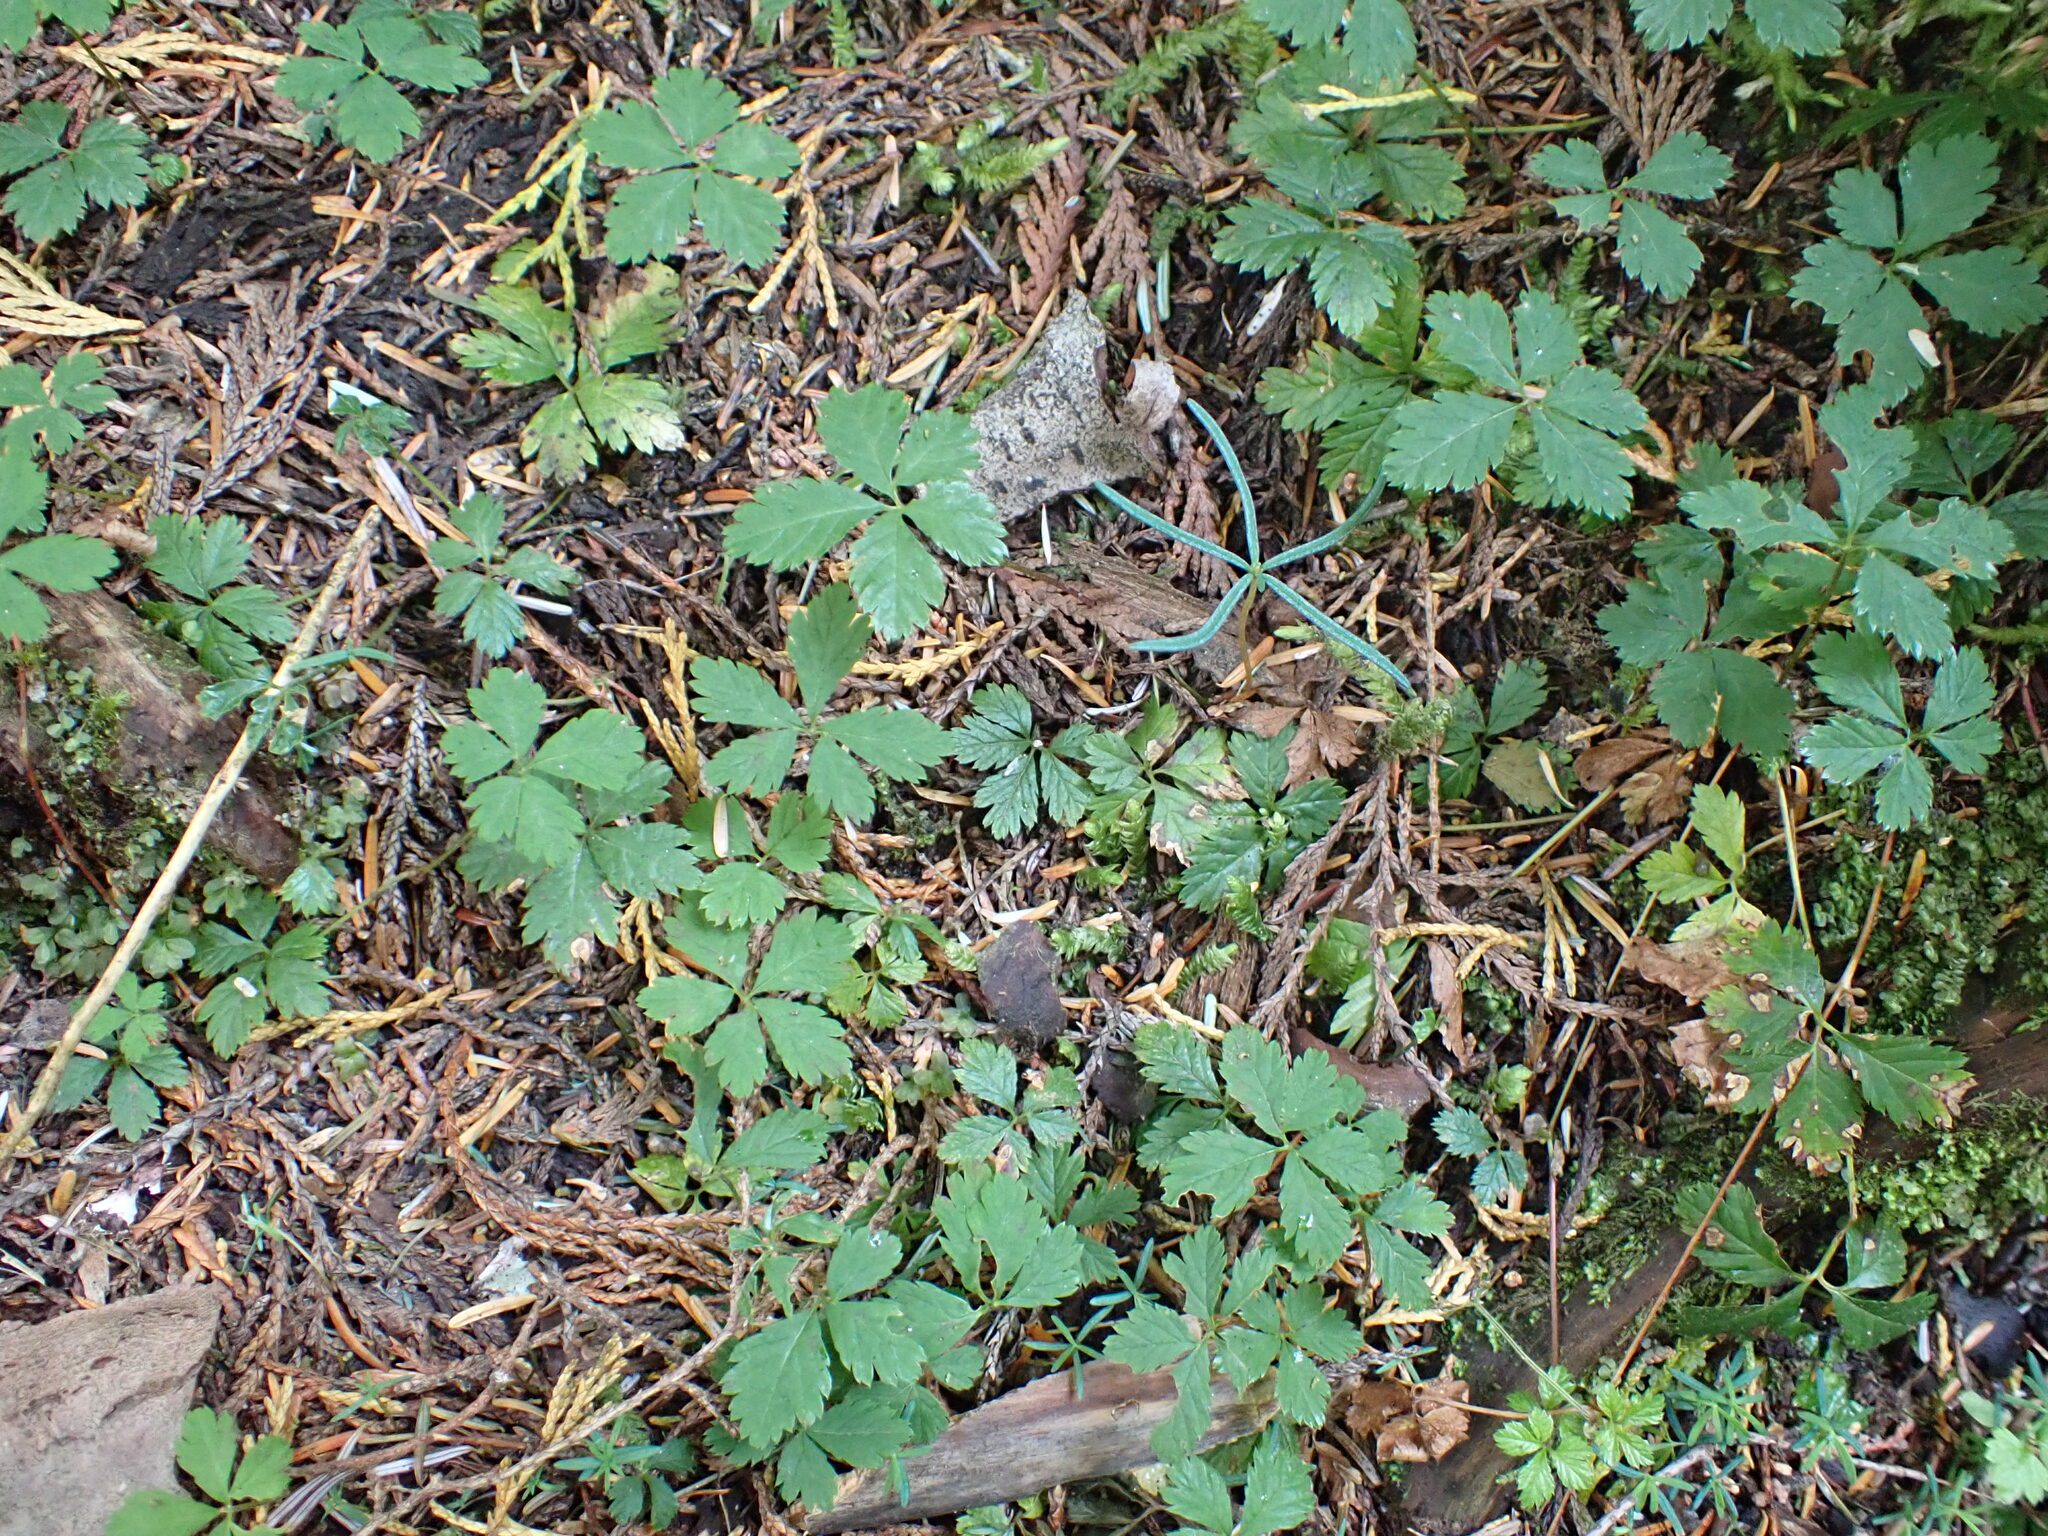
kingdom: Plantae
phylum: Tracheophyta
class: Magnoliopsida
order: Rosales
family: Rosaceae
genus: Rubus
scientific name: Rubus pedatus
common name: Creeping raspberry
